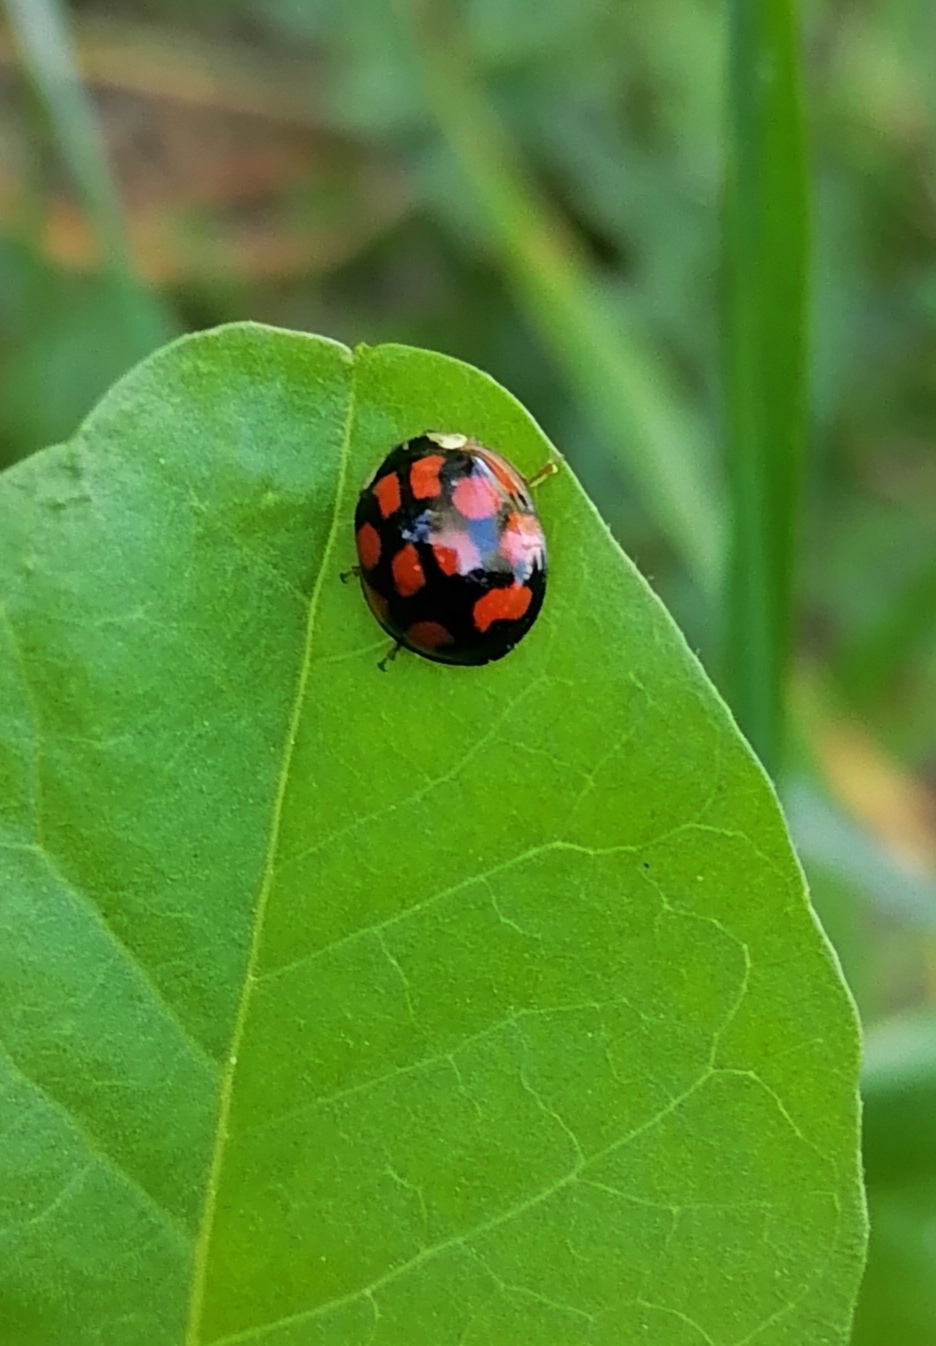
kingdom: Animalia
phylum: Arthropoda
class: Insecta
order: Coleoptera
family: Coccinellidae
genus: Harmonia
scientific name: Harmonia axyridis
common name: Harlequin ladybird
